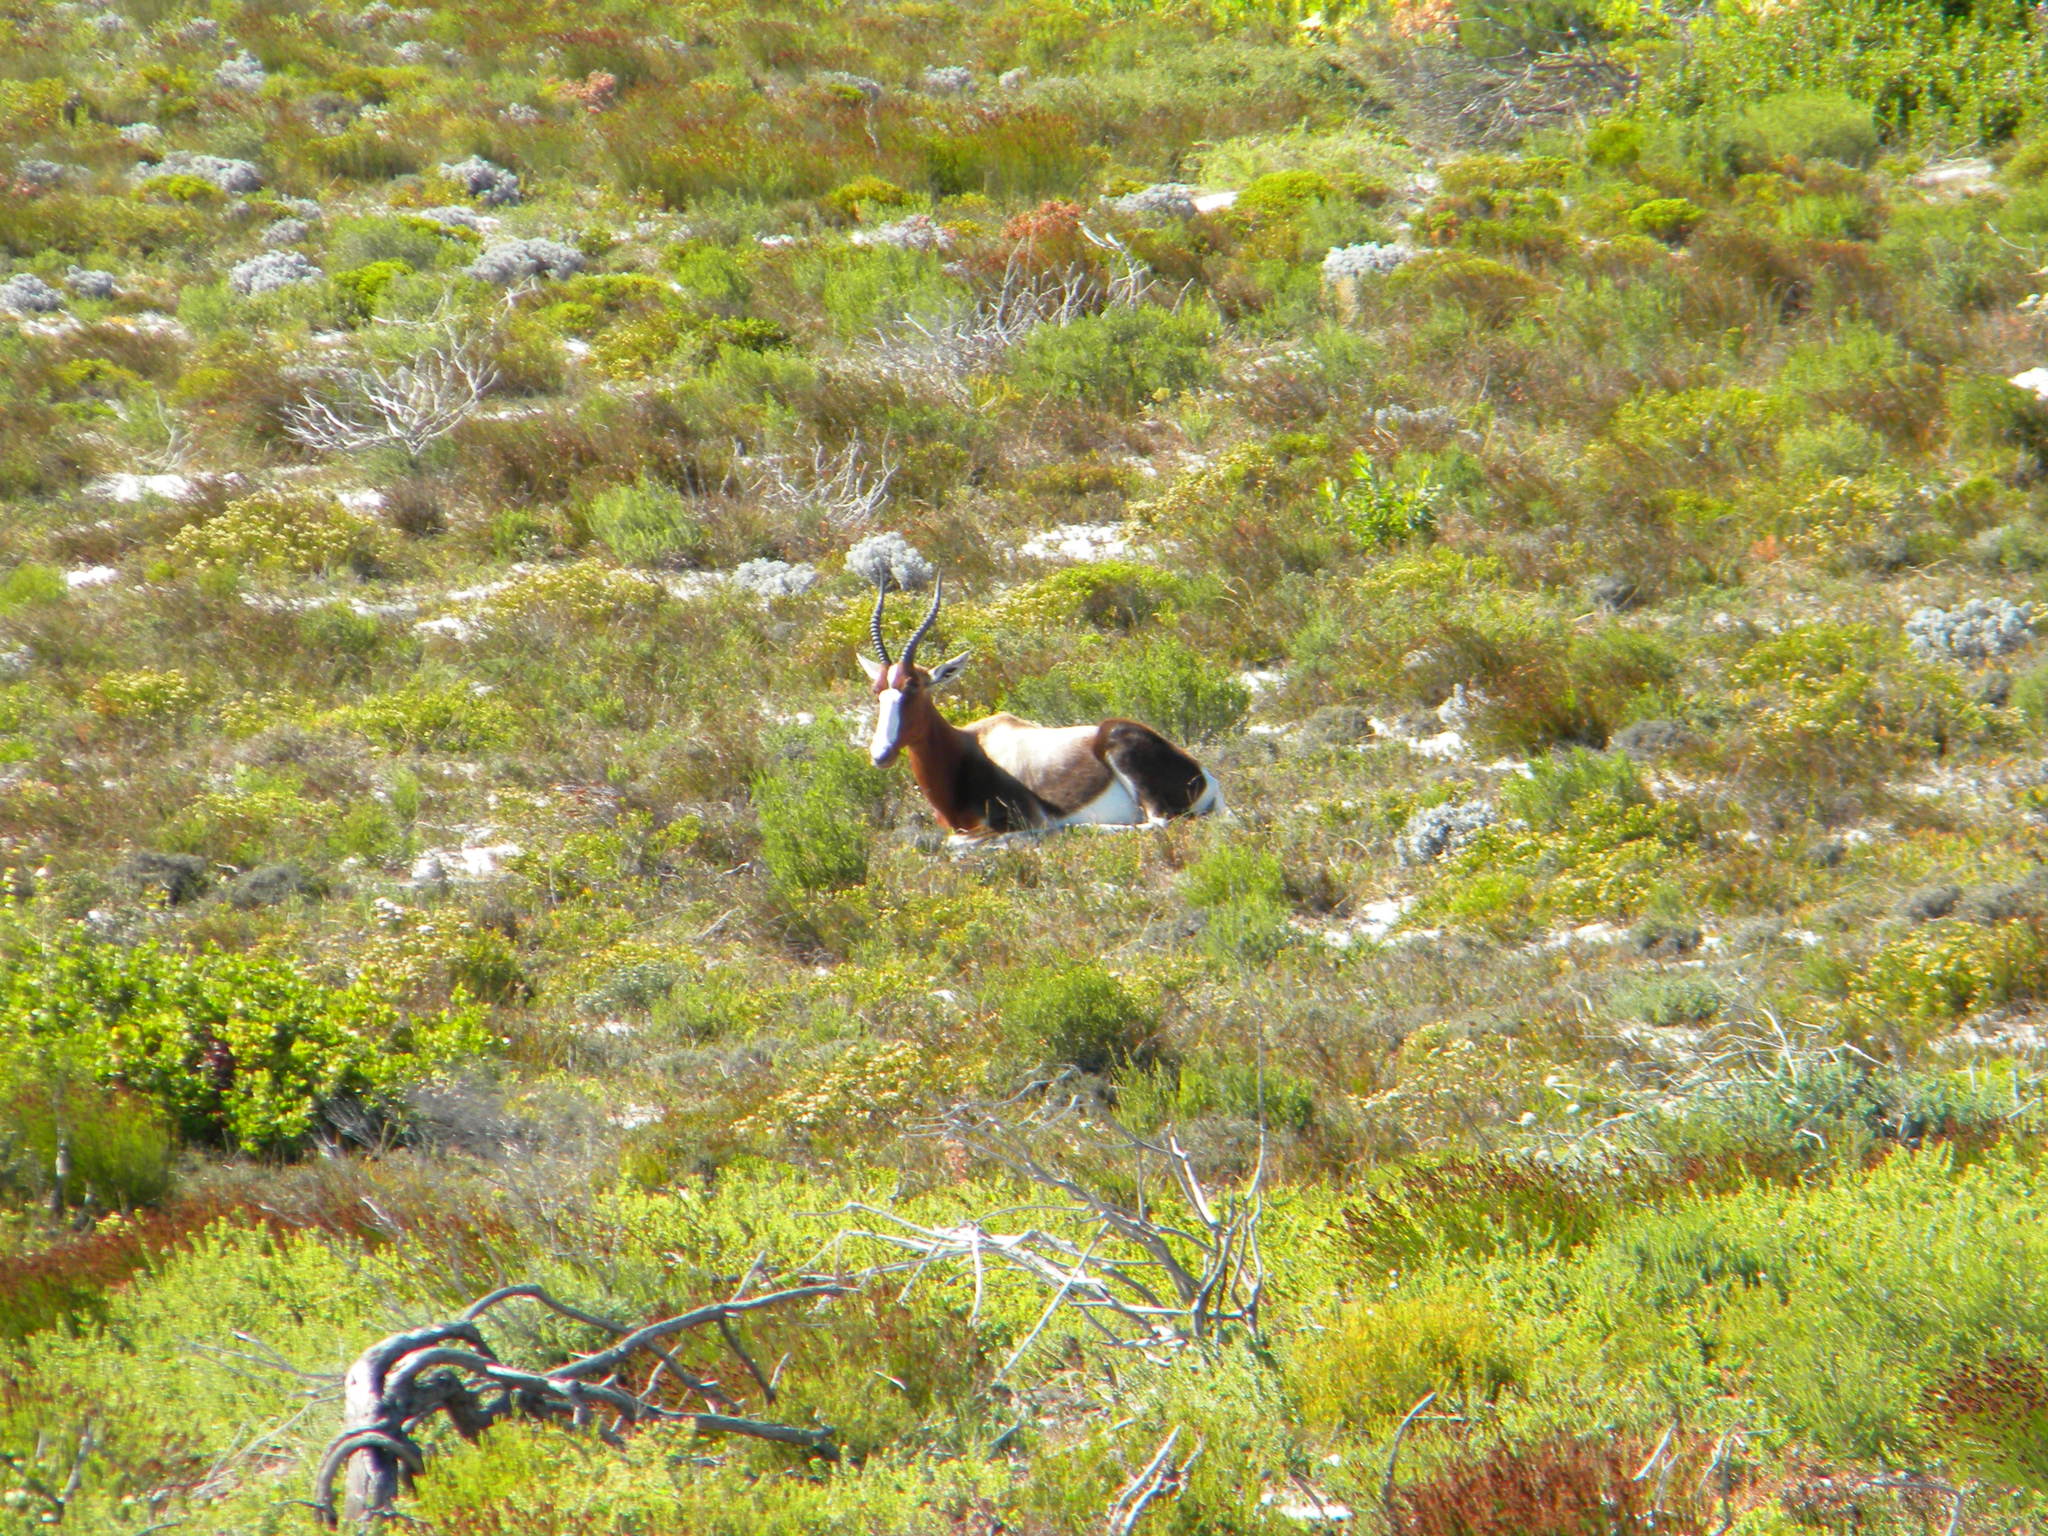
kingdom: Animalia
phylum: Chordata
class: Mammalia
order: Artiodactyla
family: Bovidae
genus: Damaliscus
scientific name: Damaliscus pygargus
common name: Bontebok
